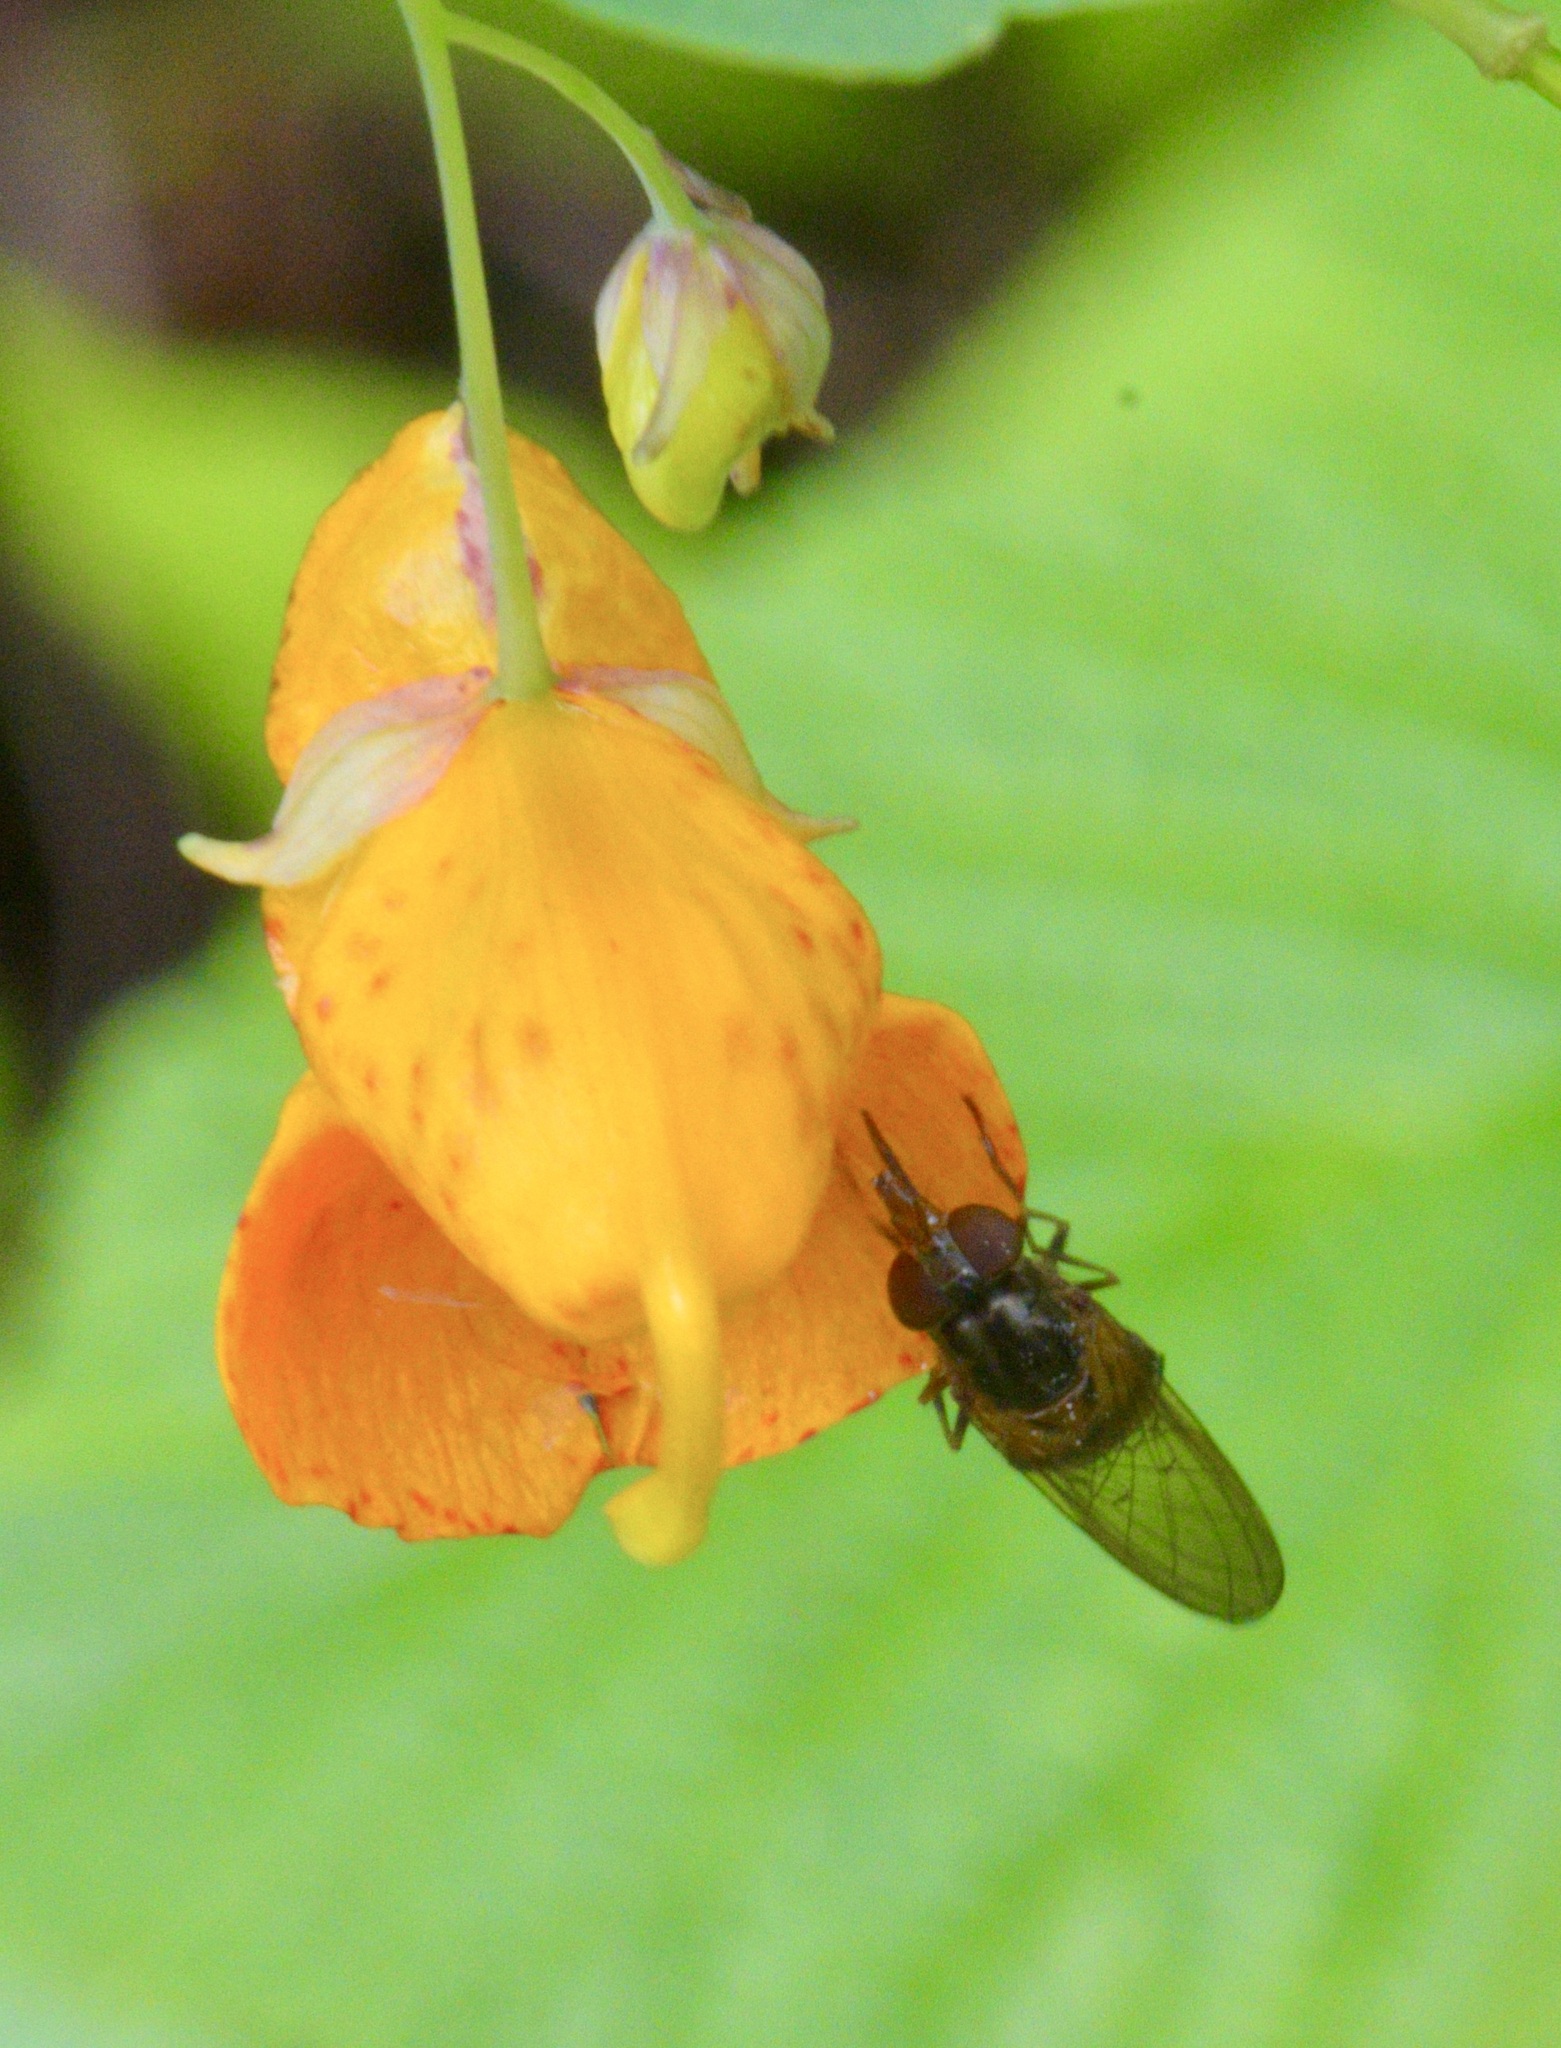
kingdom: Animalia
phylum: Arthropoda
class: Insecta
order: Diptera
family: Syrphidae
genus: Rhingia
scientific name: Rhingia nasica
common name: American snout fly
